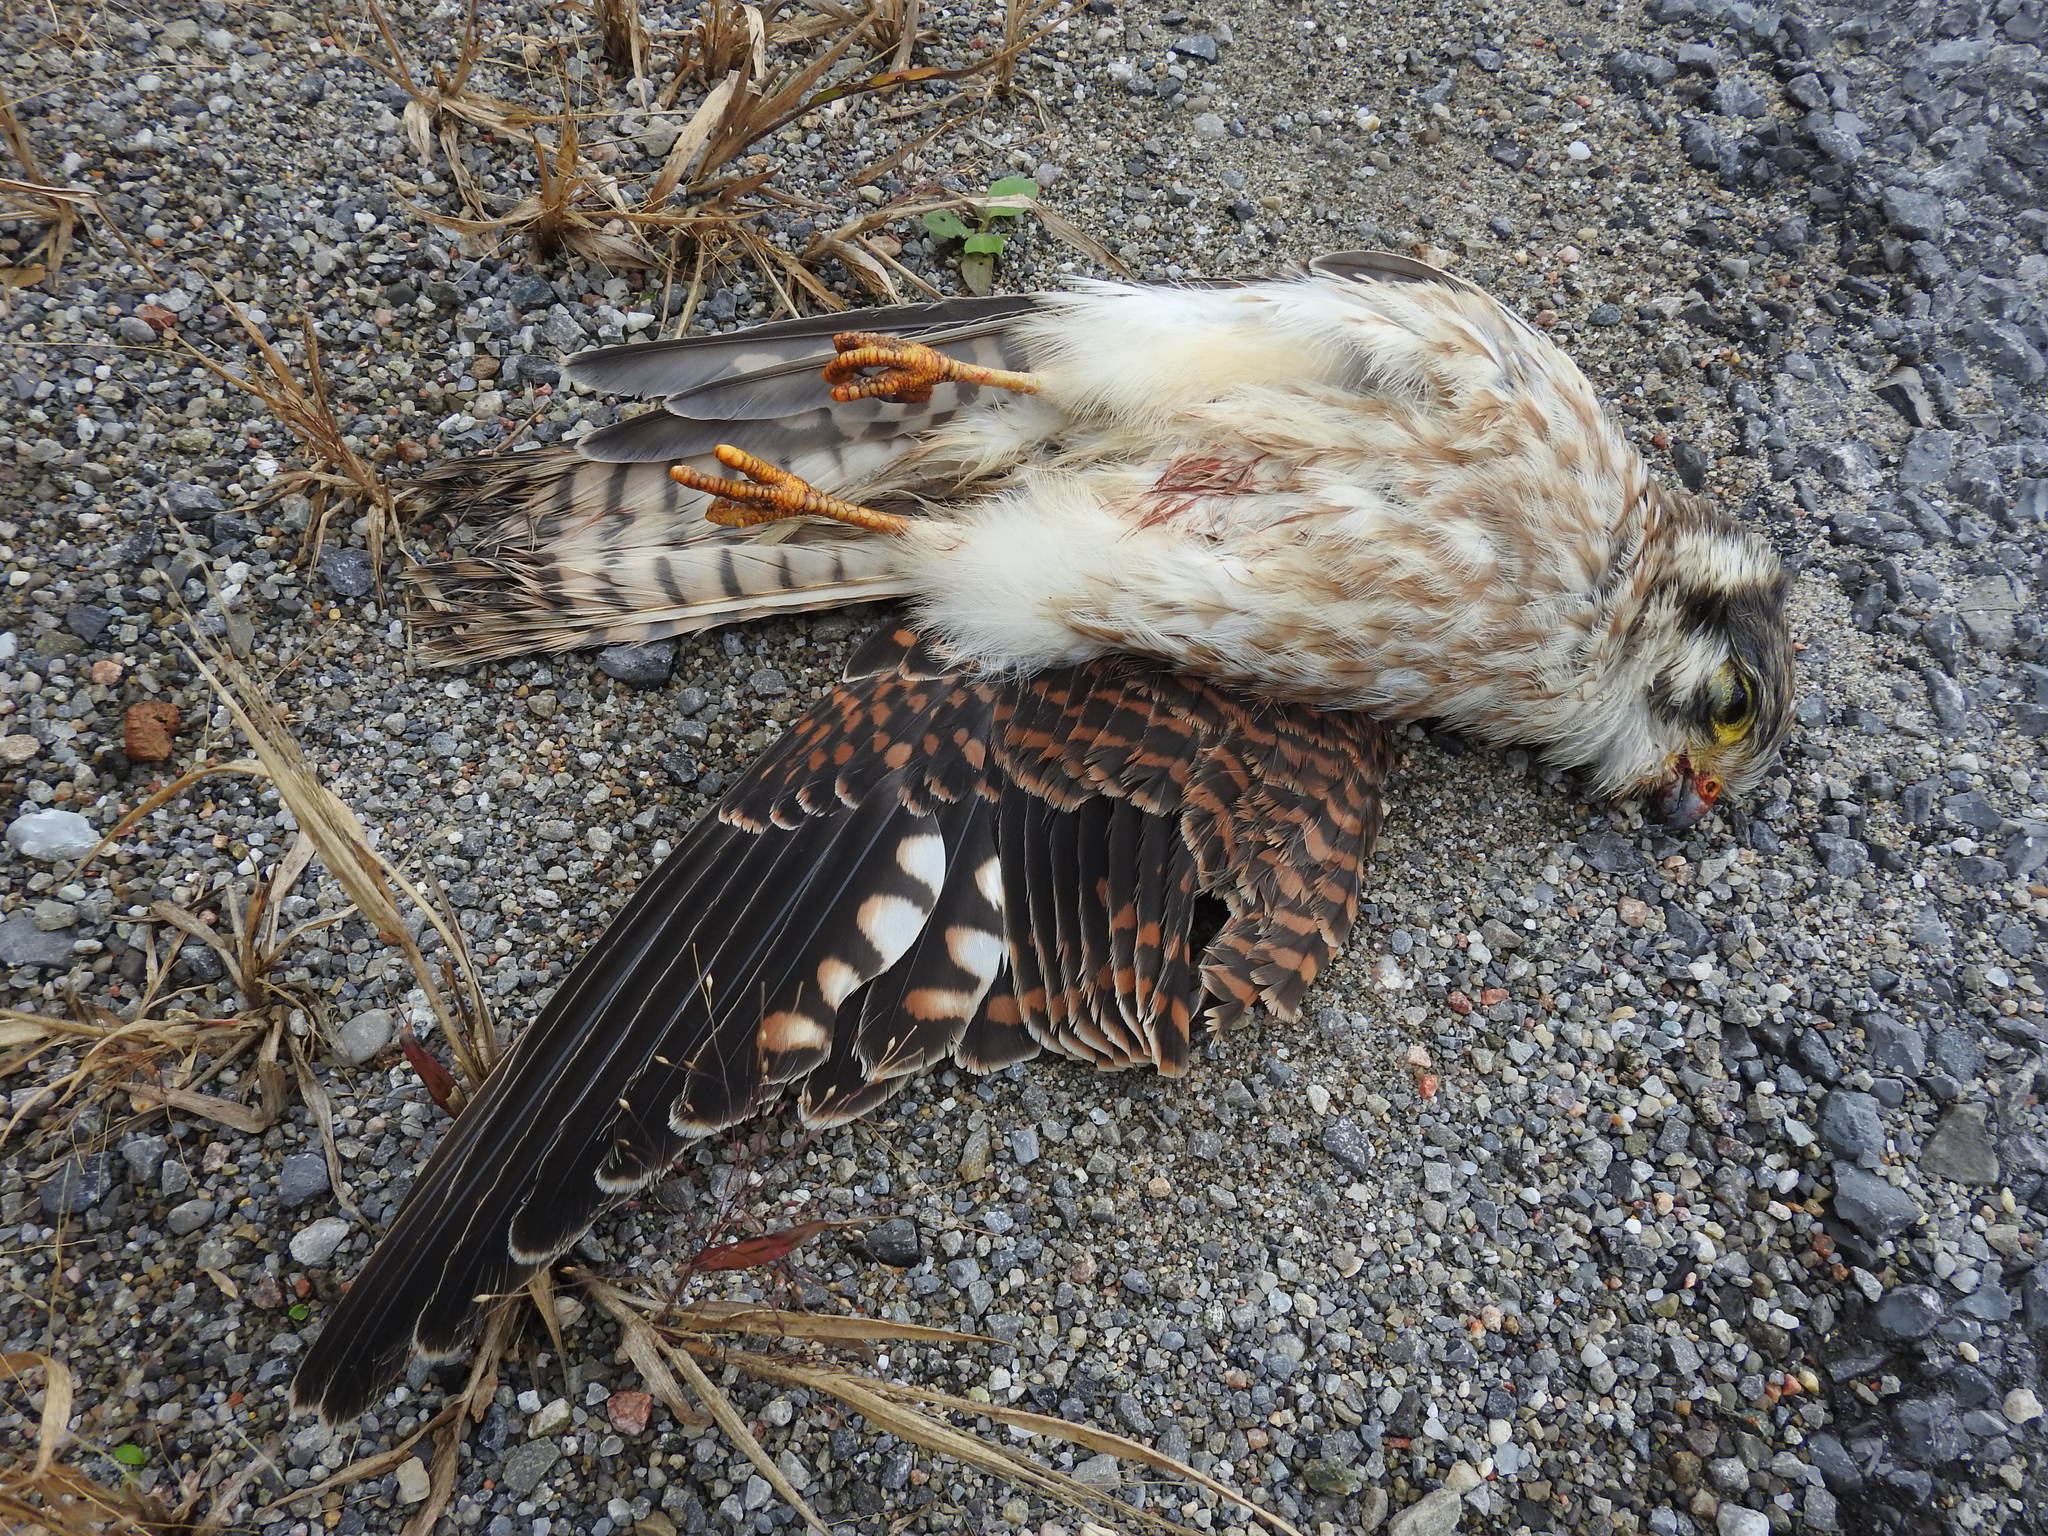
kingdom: Animalia
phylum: Chordata
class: Aves
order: Falconiformes
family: Falconidae
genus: Falco
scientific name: Falco sparverius
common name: American kestrel
